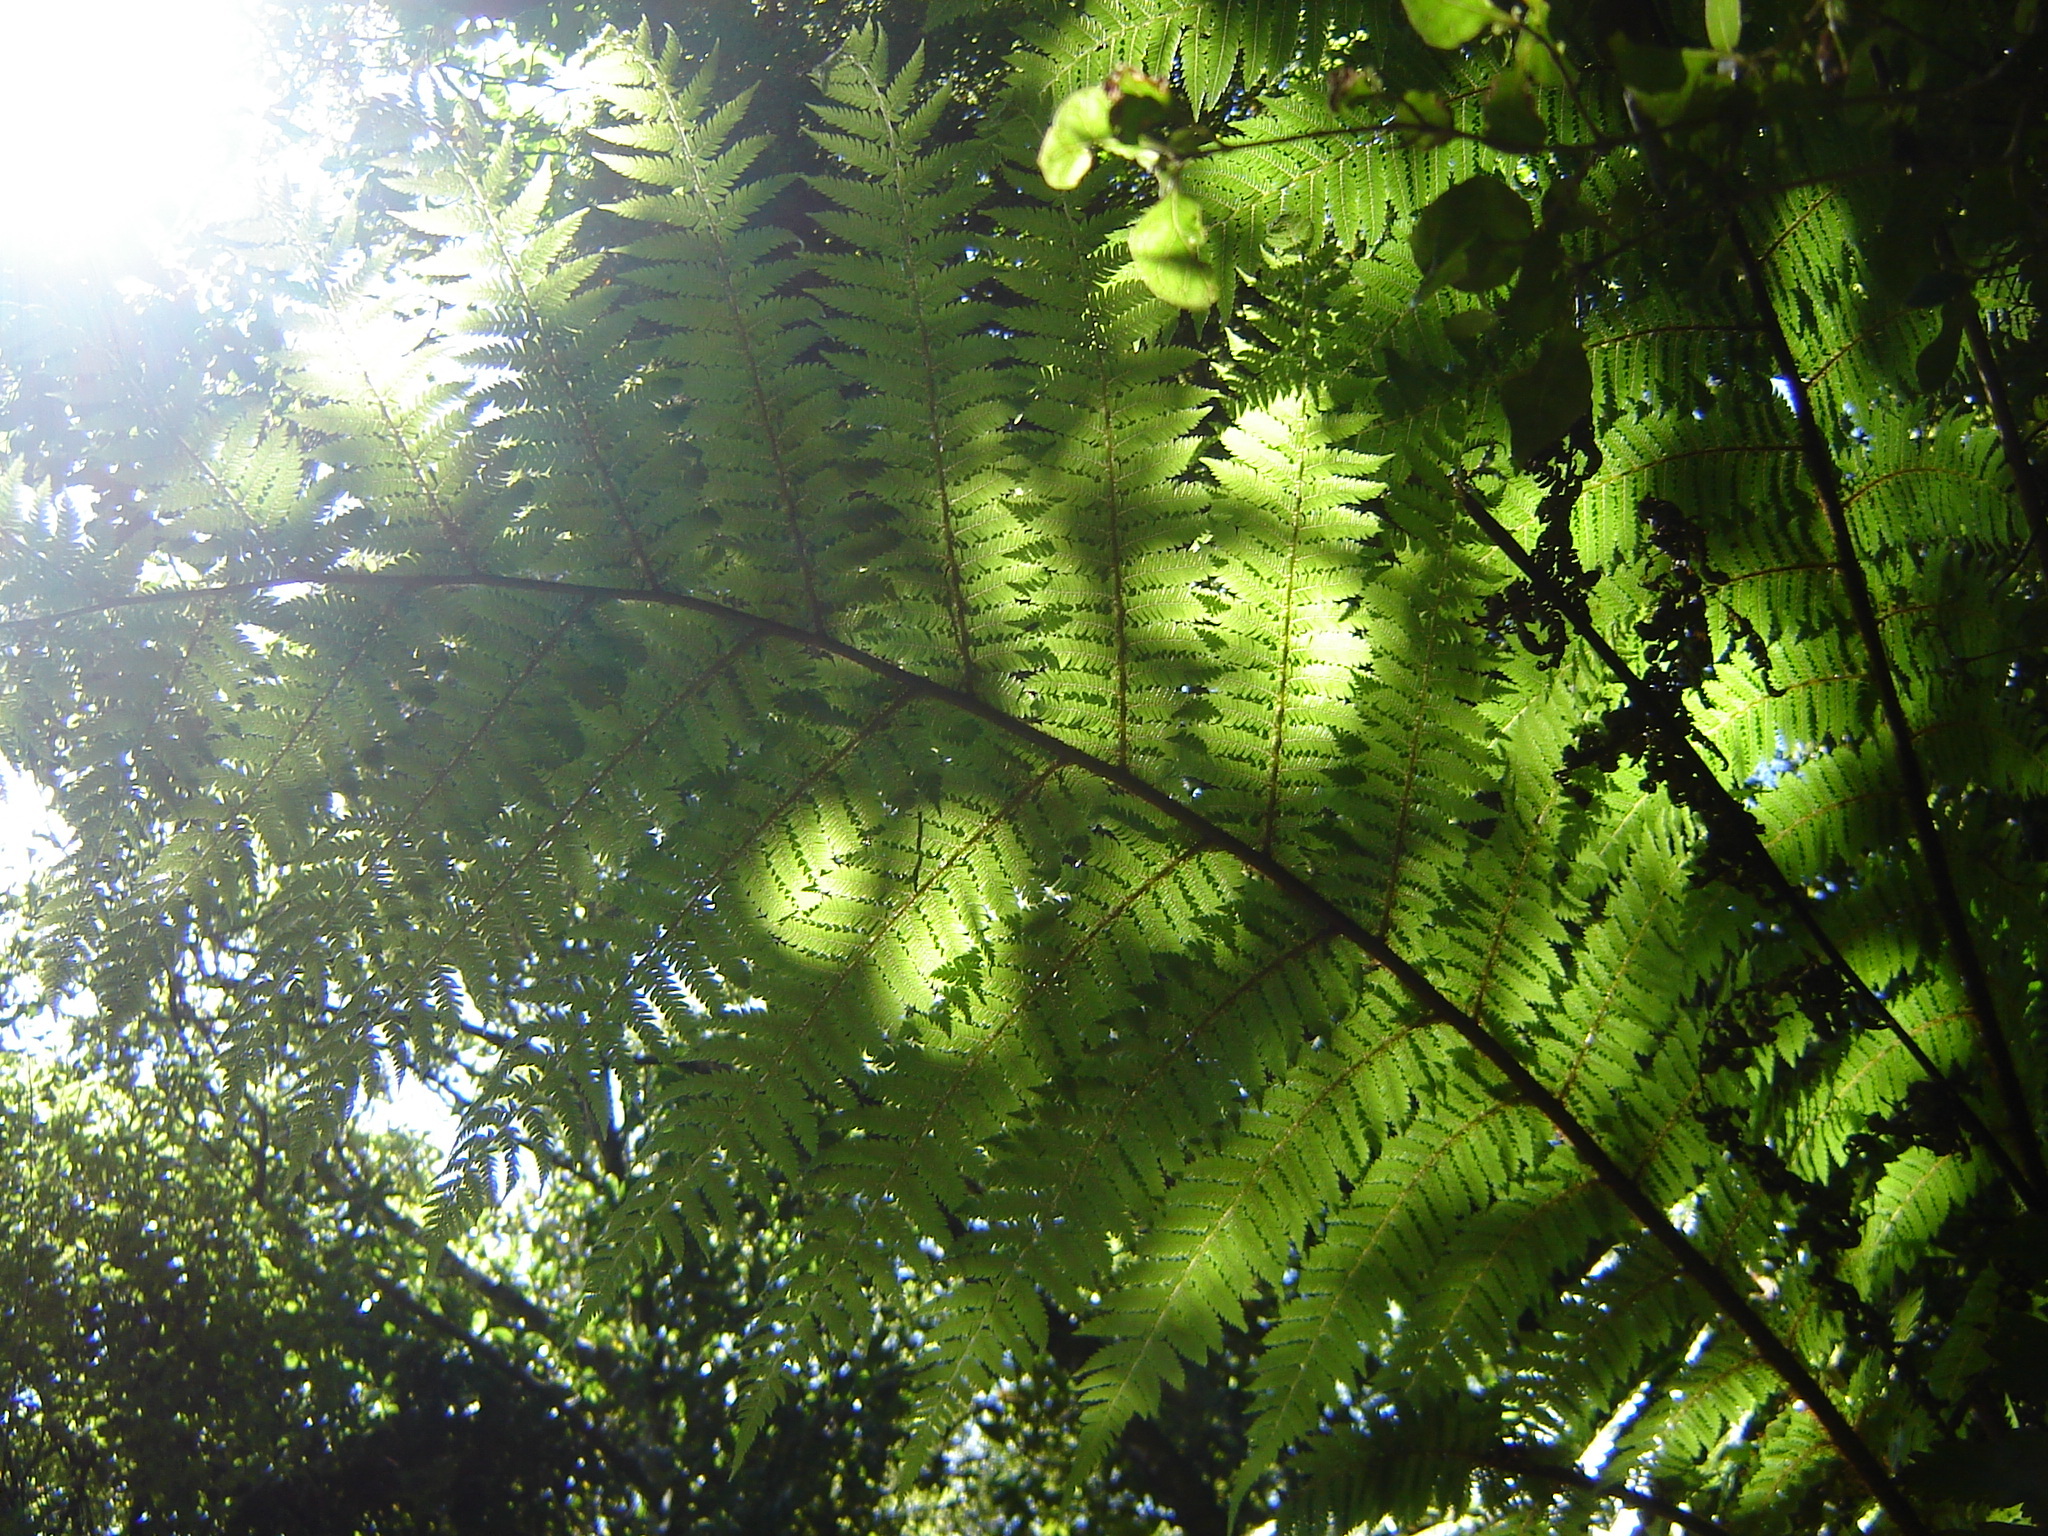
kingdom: Plantae
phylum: Tracheophyta
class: Polypodiopsida
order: Cyatheales
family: Cyatheaceae
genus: Alsophila
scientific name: Alsophila smithii
